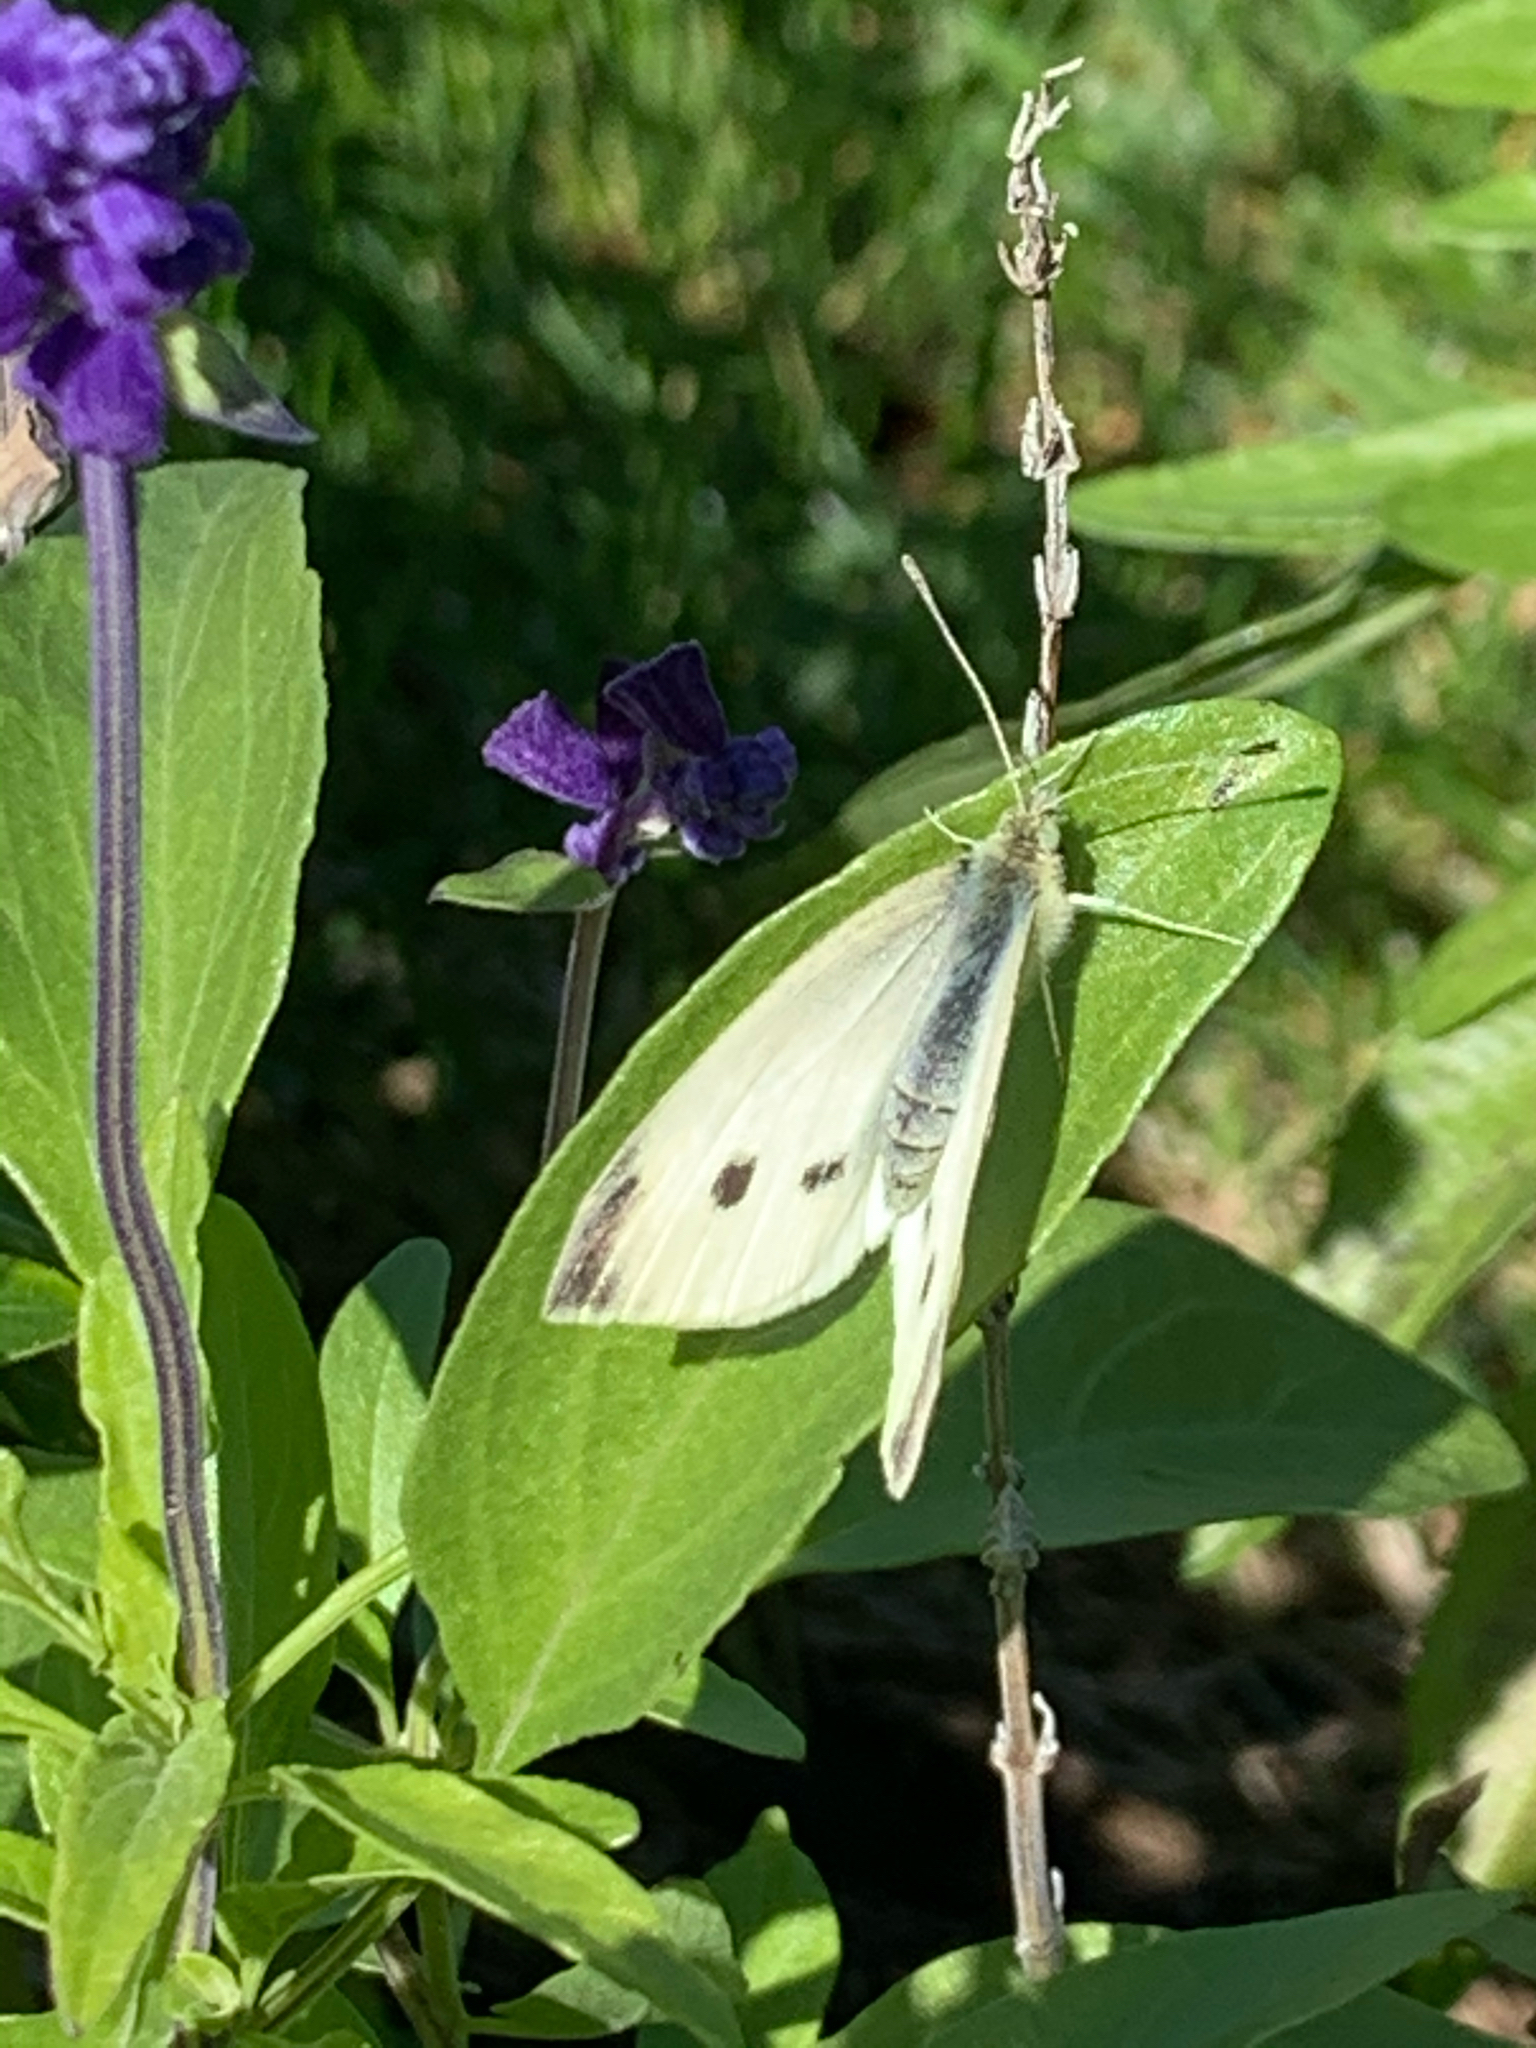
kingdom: Animalia
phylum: Arthropoda
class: Insecta
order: Lepidoptera
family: Pieridae
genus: Pieris
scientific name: Pieris rapae
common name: Small white
